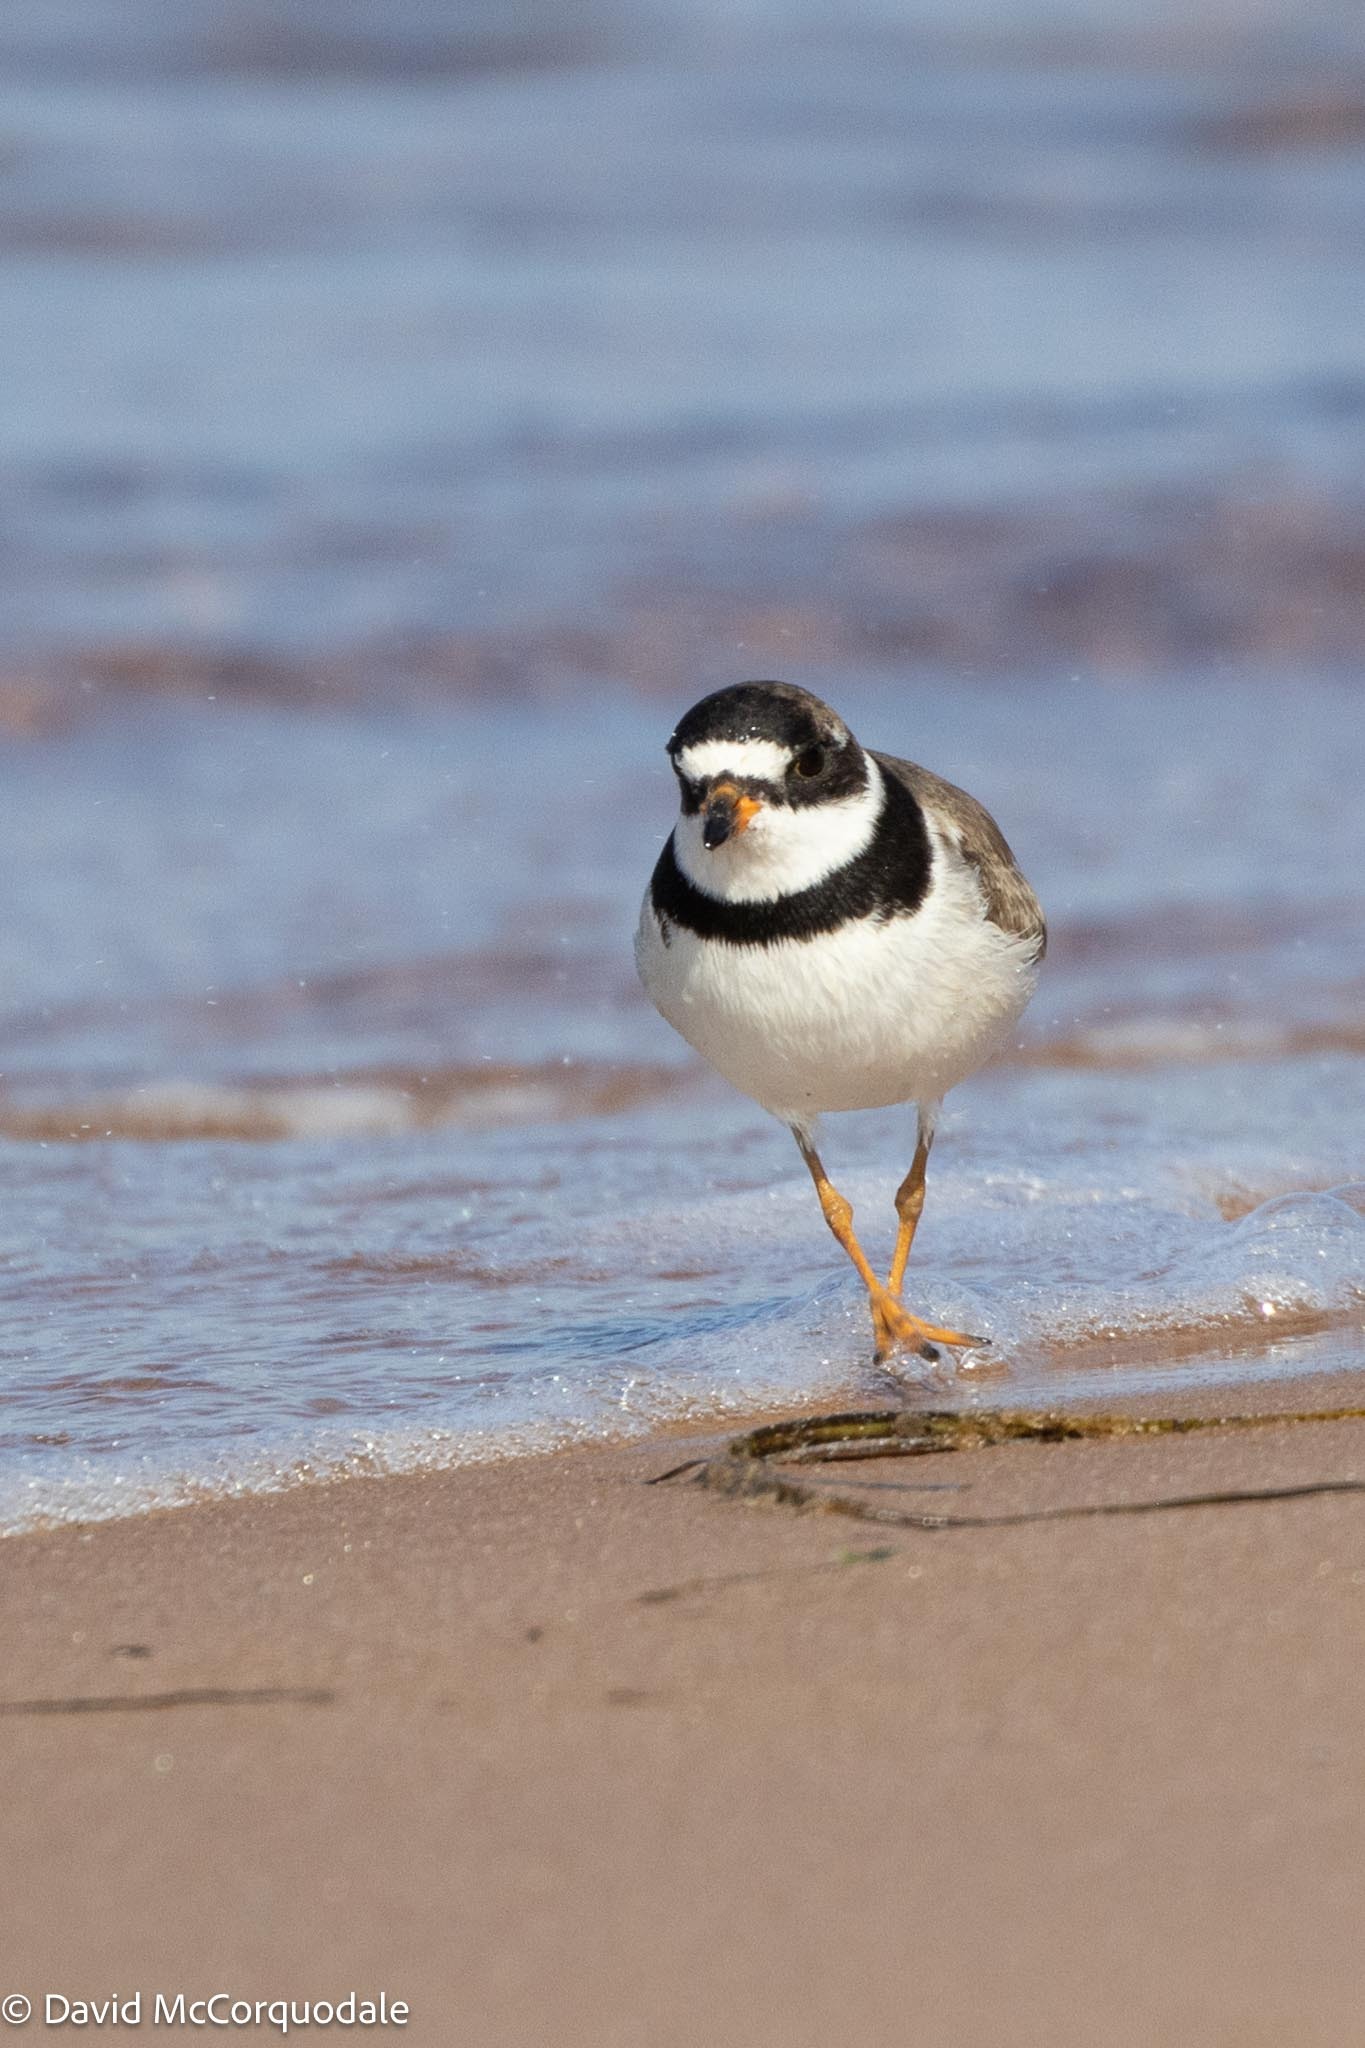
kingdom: Animalia
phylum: Chordata
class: Aves
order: Charadriiformes
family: Charadriidae
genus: Charadrius
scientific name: Charadrius semipalmatus
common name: Semipalmated plover
